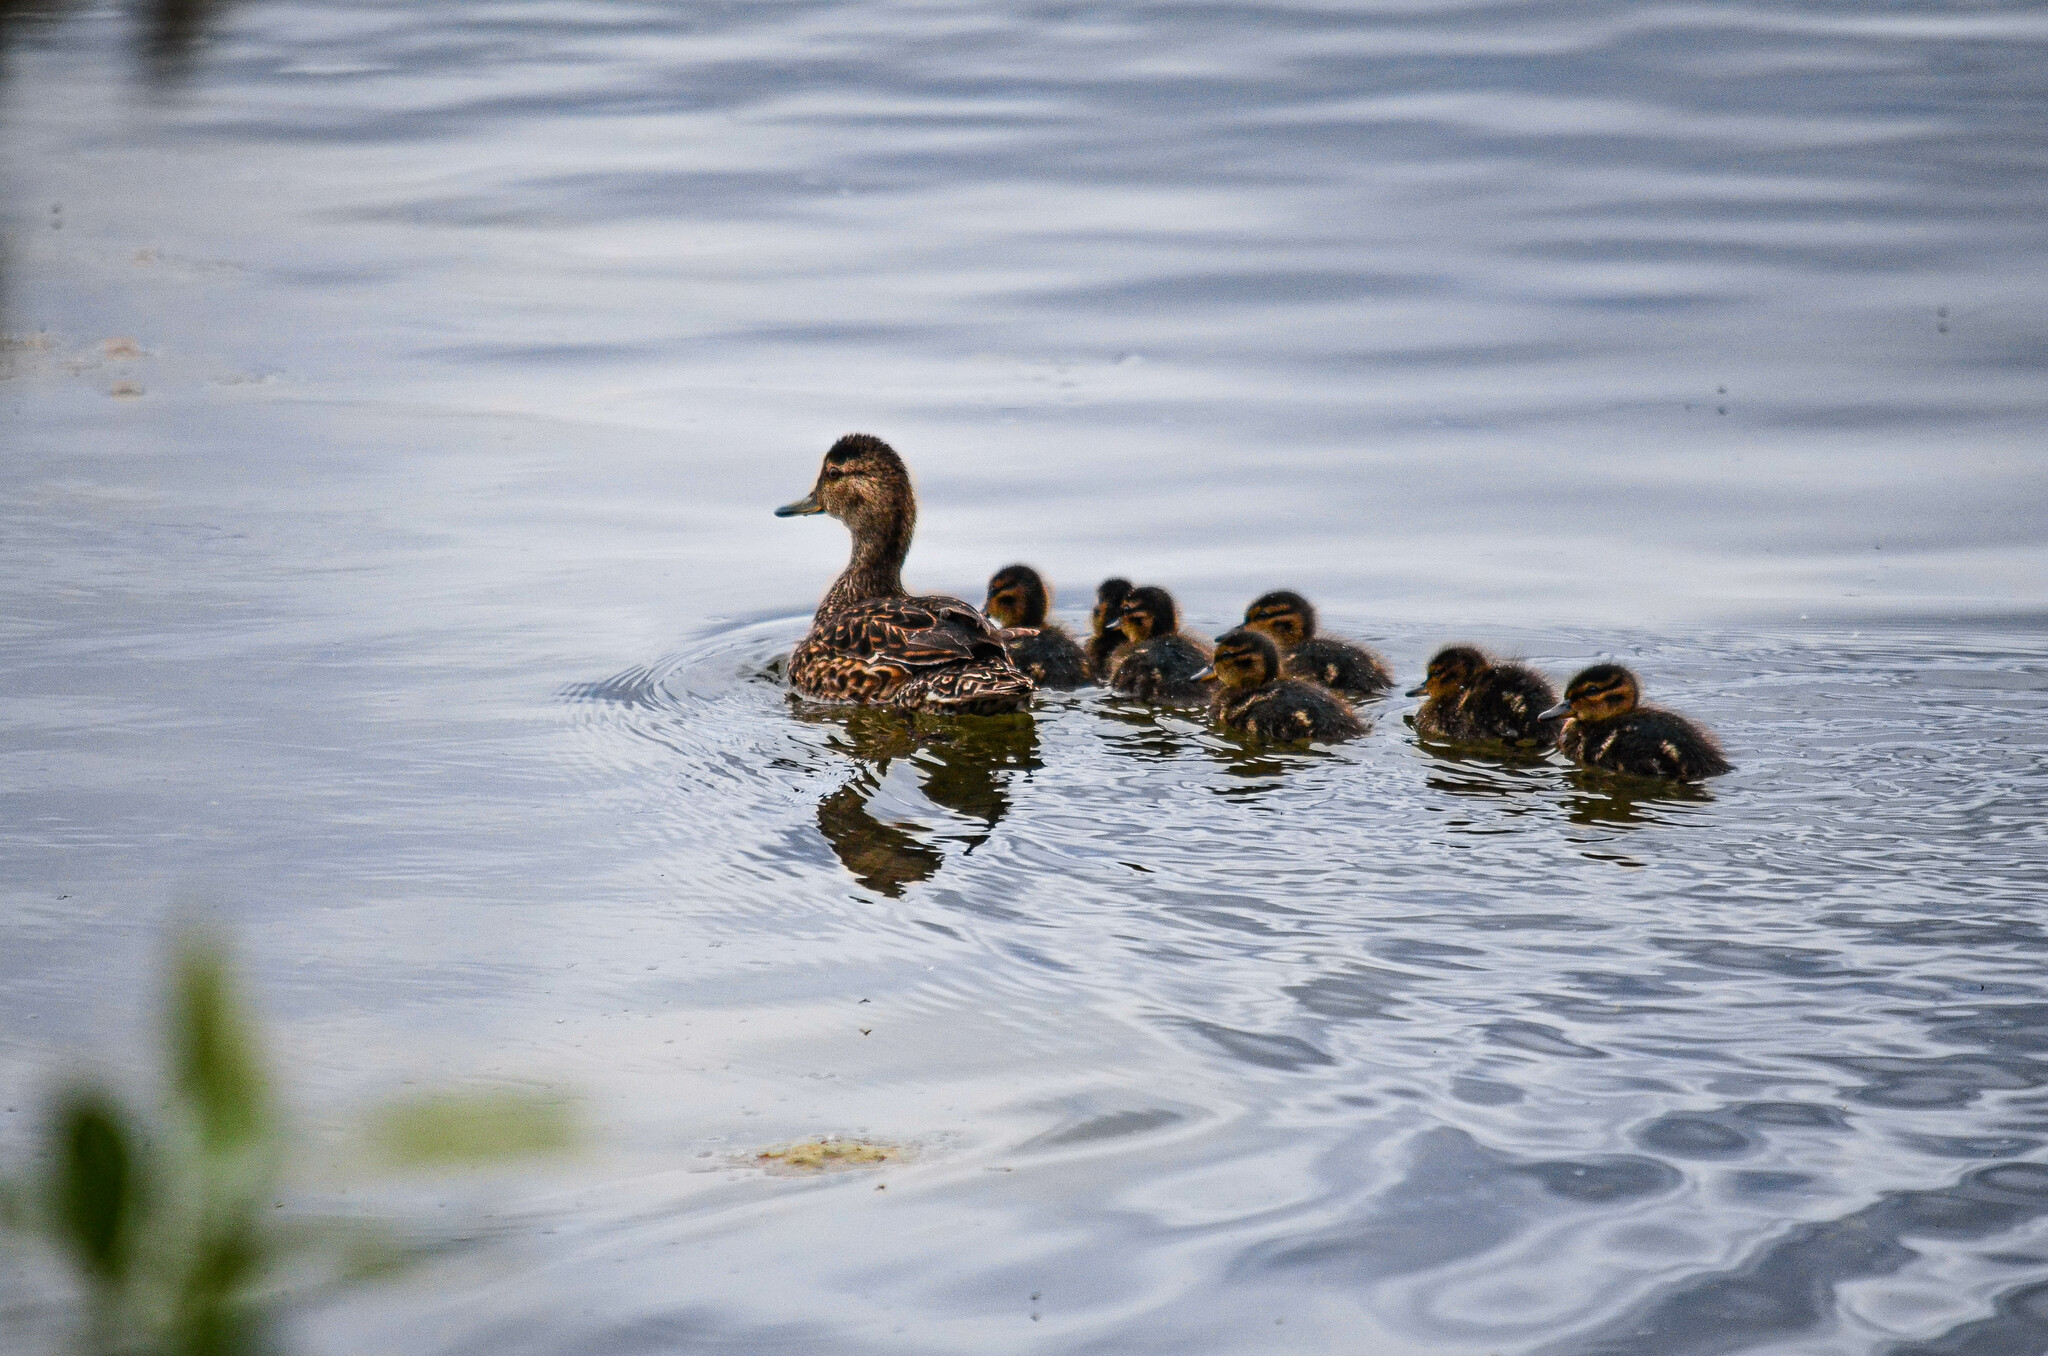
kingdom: Animalia
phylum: Chordata
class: Aves
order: Anseriformes
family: Anatidae
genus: Anas
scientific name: Anas crecca
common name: Eurasian teal
